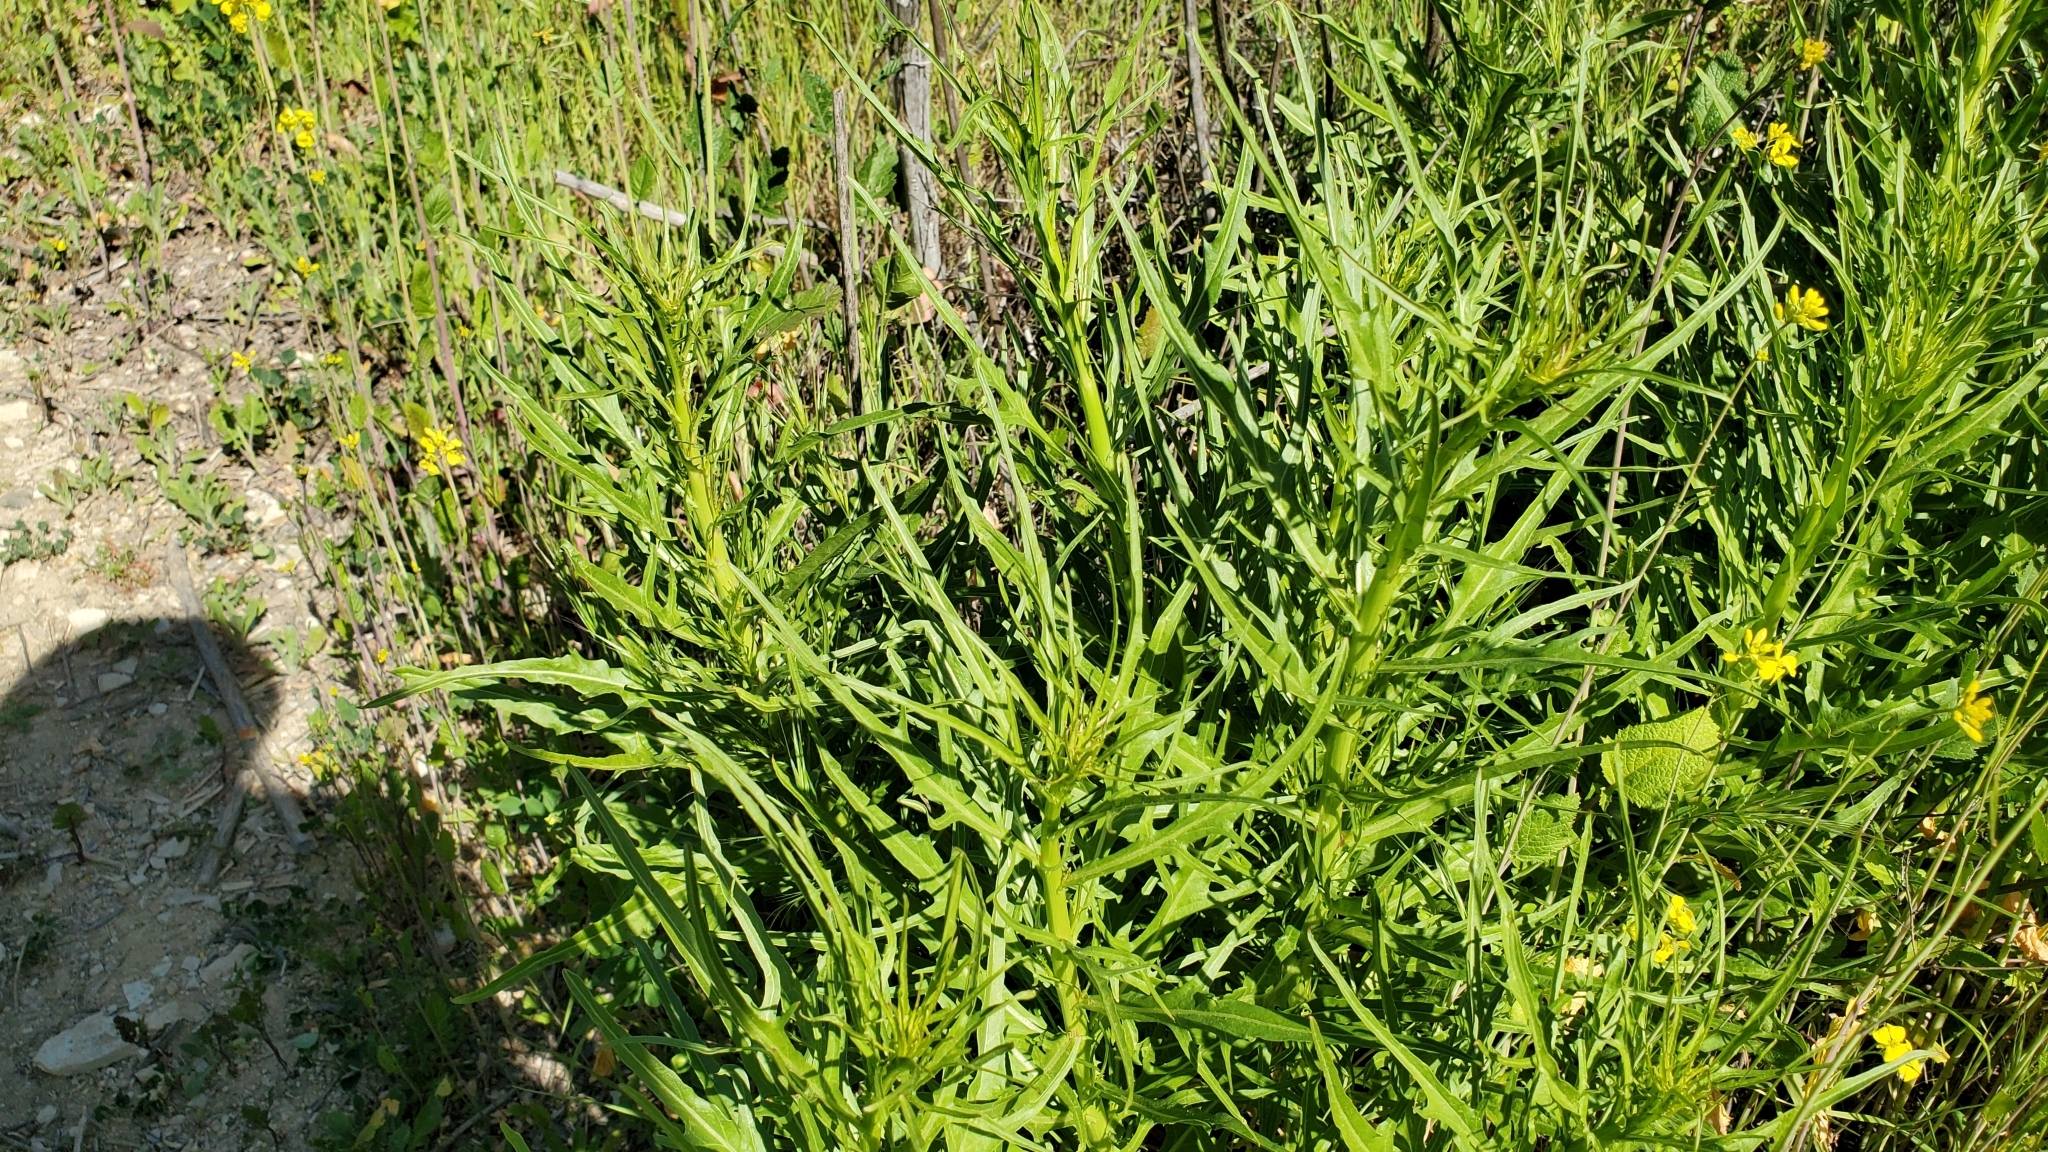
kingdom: Plantae
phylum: Tracheophyta
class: Magnoliopsida
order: Asterales
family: Asteraceae
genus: Malacothrix
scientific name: Malacothrix saxatilis
